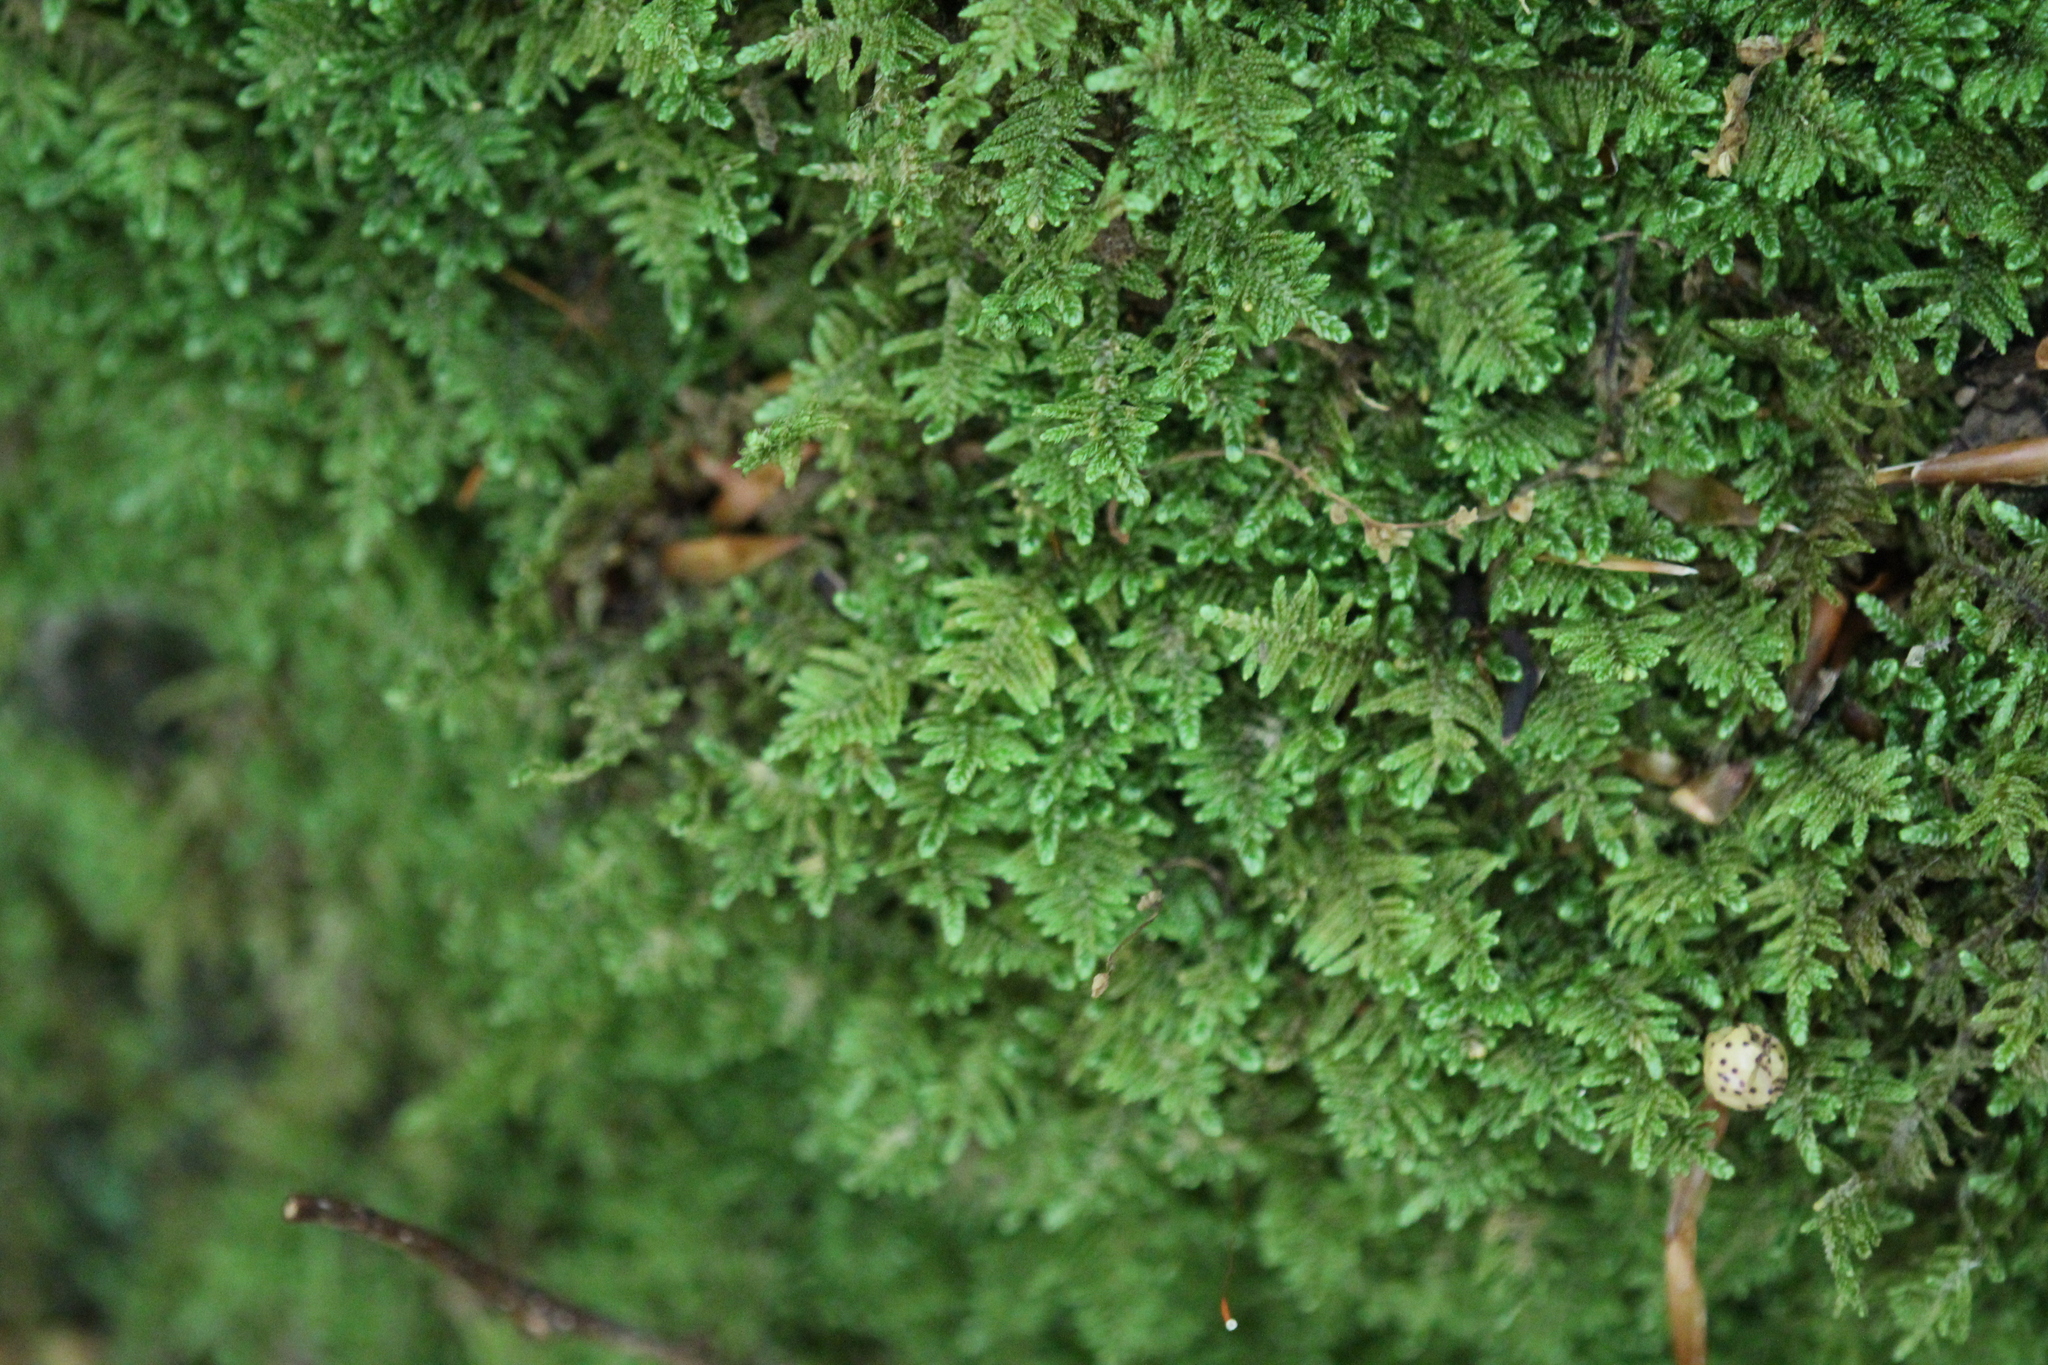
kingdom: Plantae
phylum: Bryophyta
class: Bryopsida
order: Hypnales
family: Callicladiaceae
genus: Callicladium
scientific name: Callicladium imponens
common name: Brocade moss
